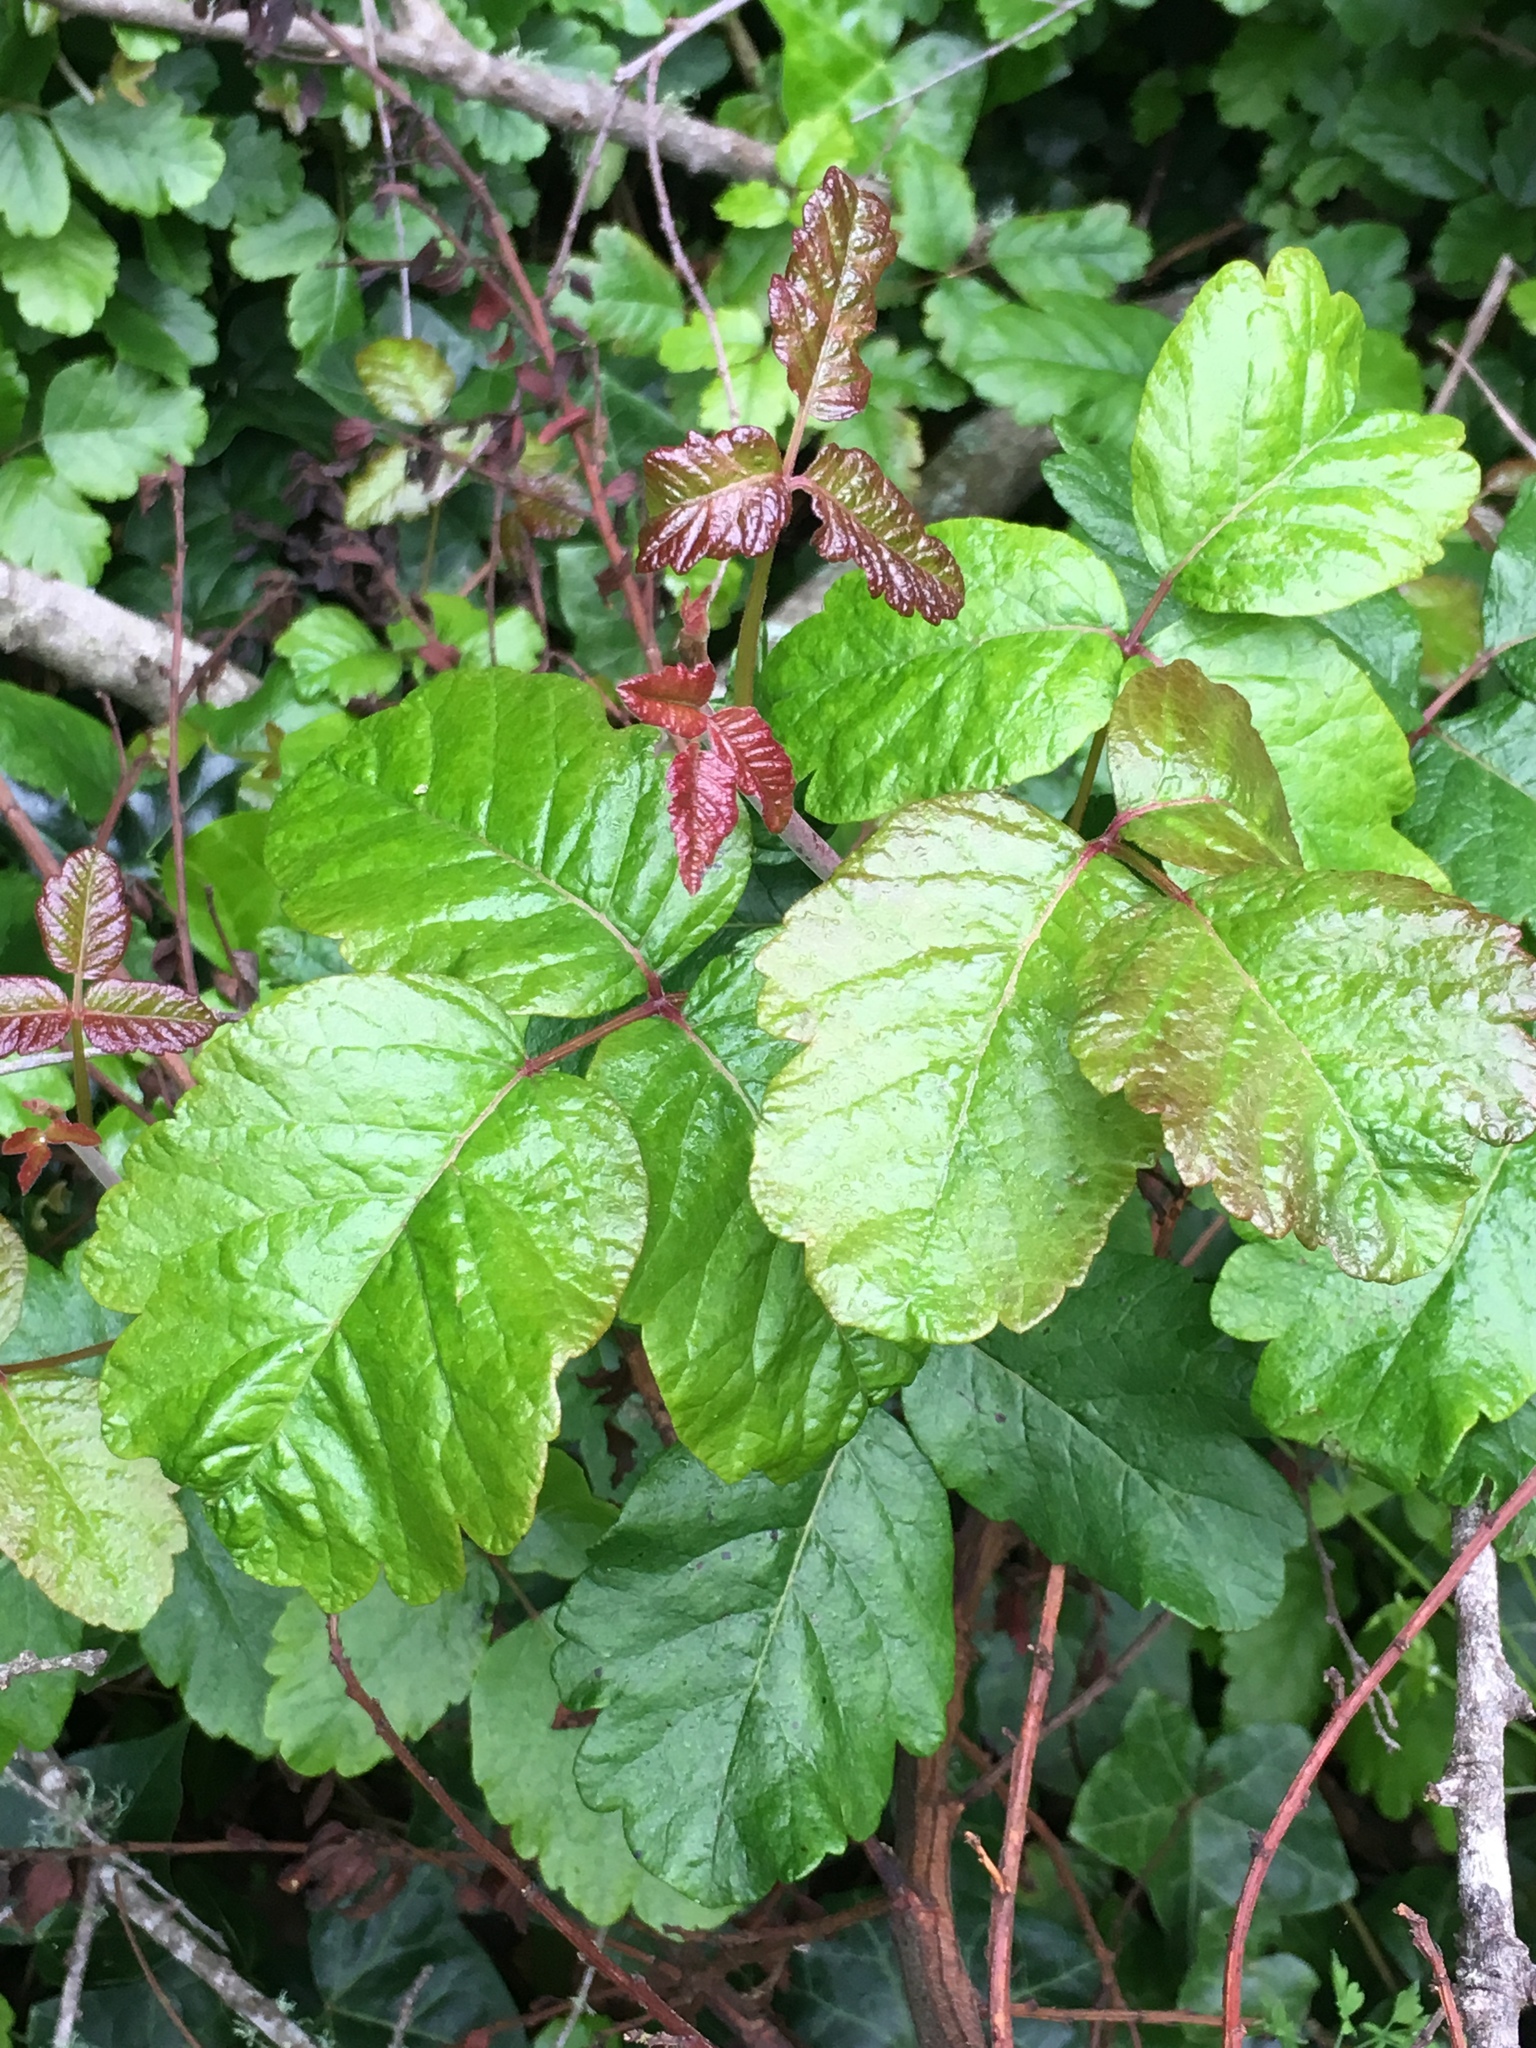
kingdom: Plantae
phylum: Tracheophyta
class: Magnoliopsida
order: Sapindales
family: Anacardiaceae
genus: Toxicodendron
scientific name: Toxicodendron diversilobum
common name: Pacific poison-oak
